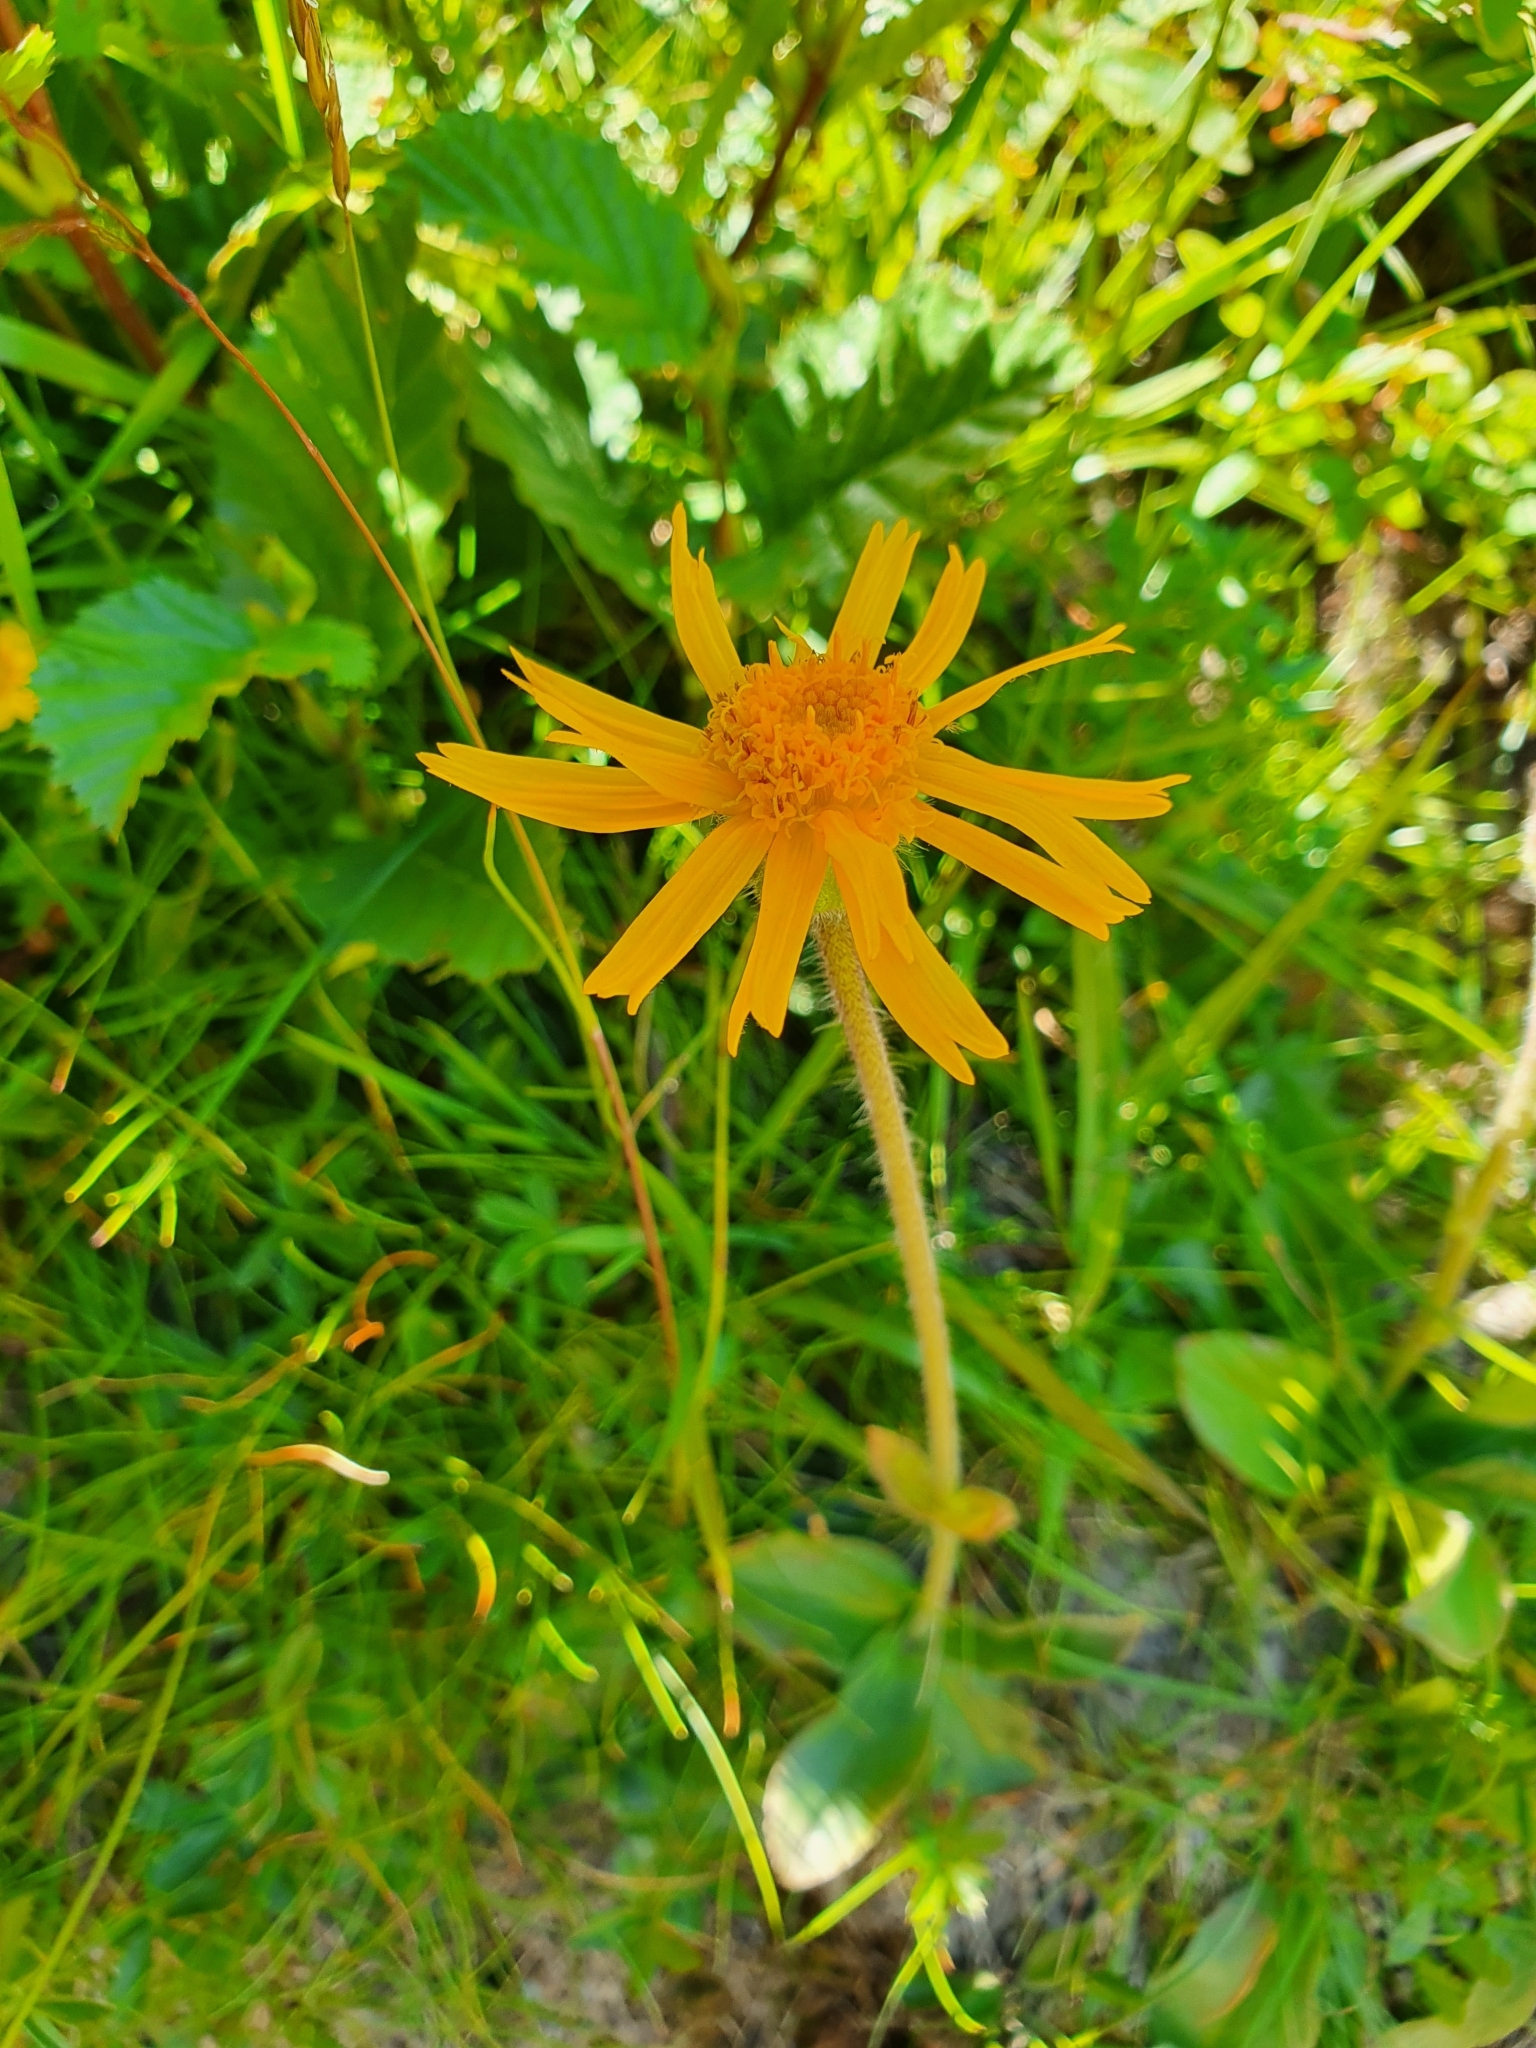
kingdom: Plantae
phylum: Tracheophyta
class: Magnoliopsida
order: Asterales
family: Asteraceae
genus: Arnica
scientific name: Arnica montana
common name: Leopard's bane
